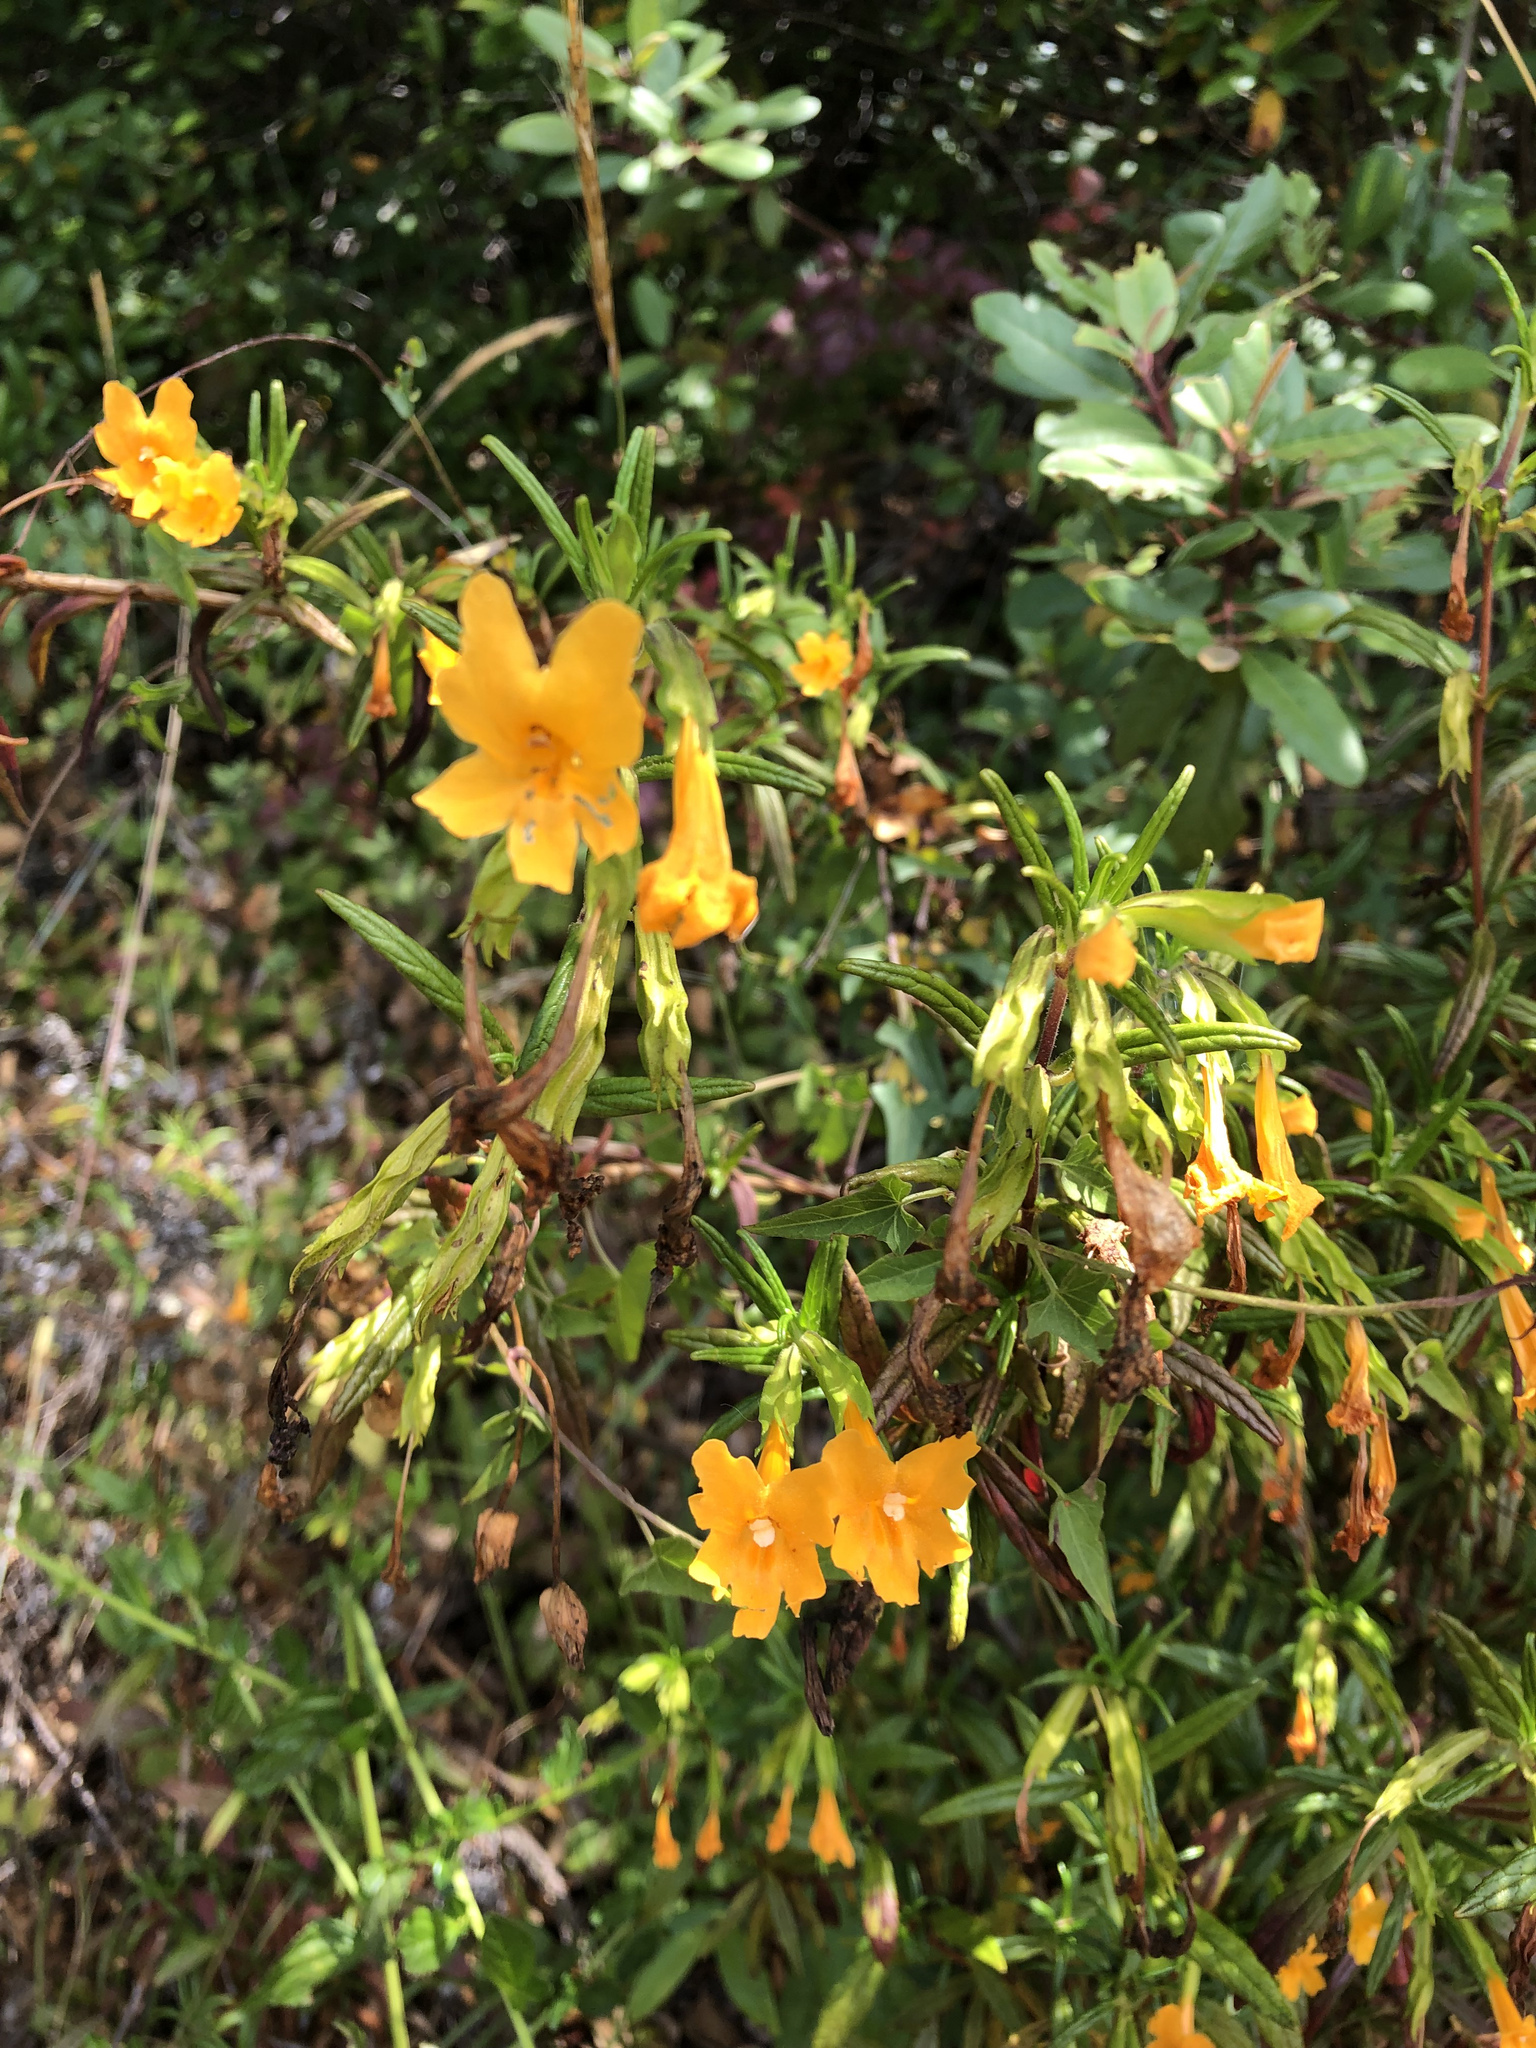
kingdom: Plantae
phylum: Tracheophyta
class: Magnoliopsida
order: Lamiales
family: Phrymaceae
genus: Diplacus
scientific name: Diplacus aurantiacus
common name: Bush monkey-flower
